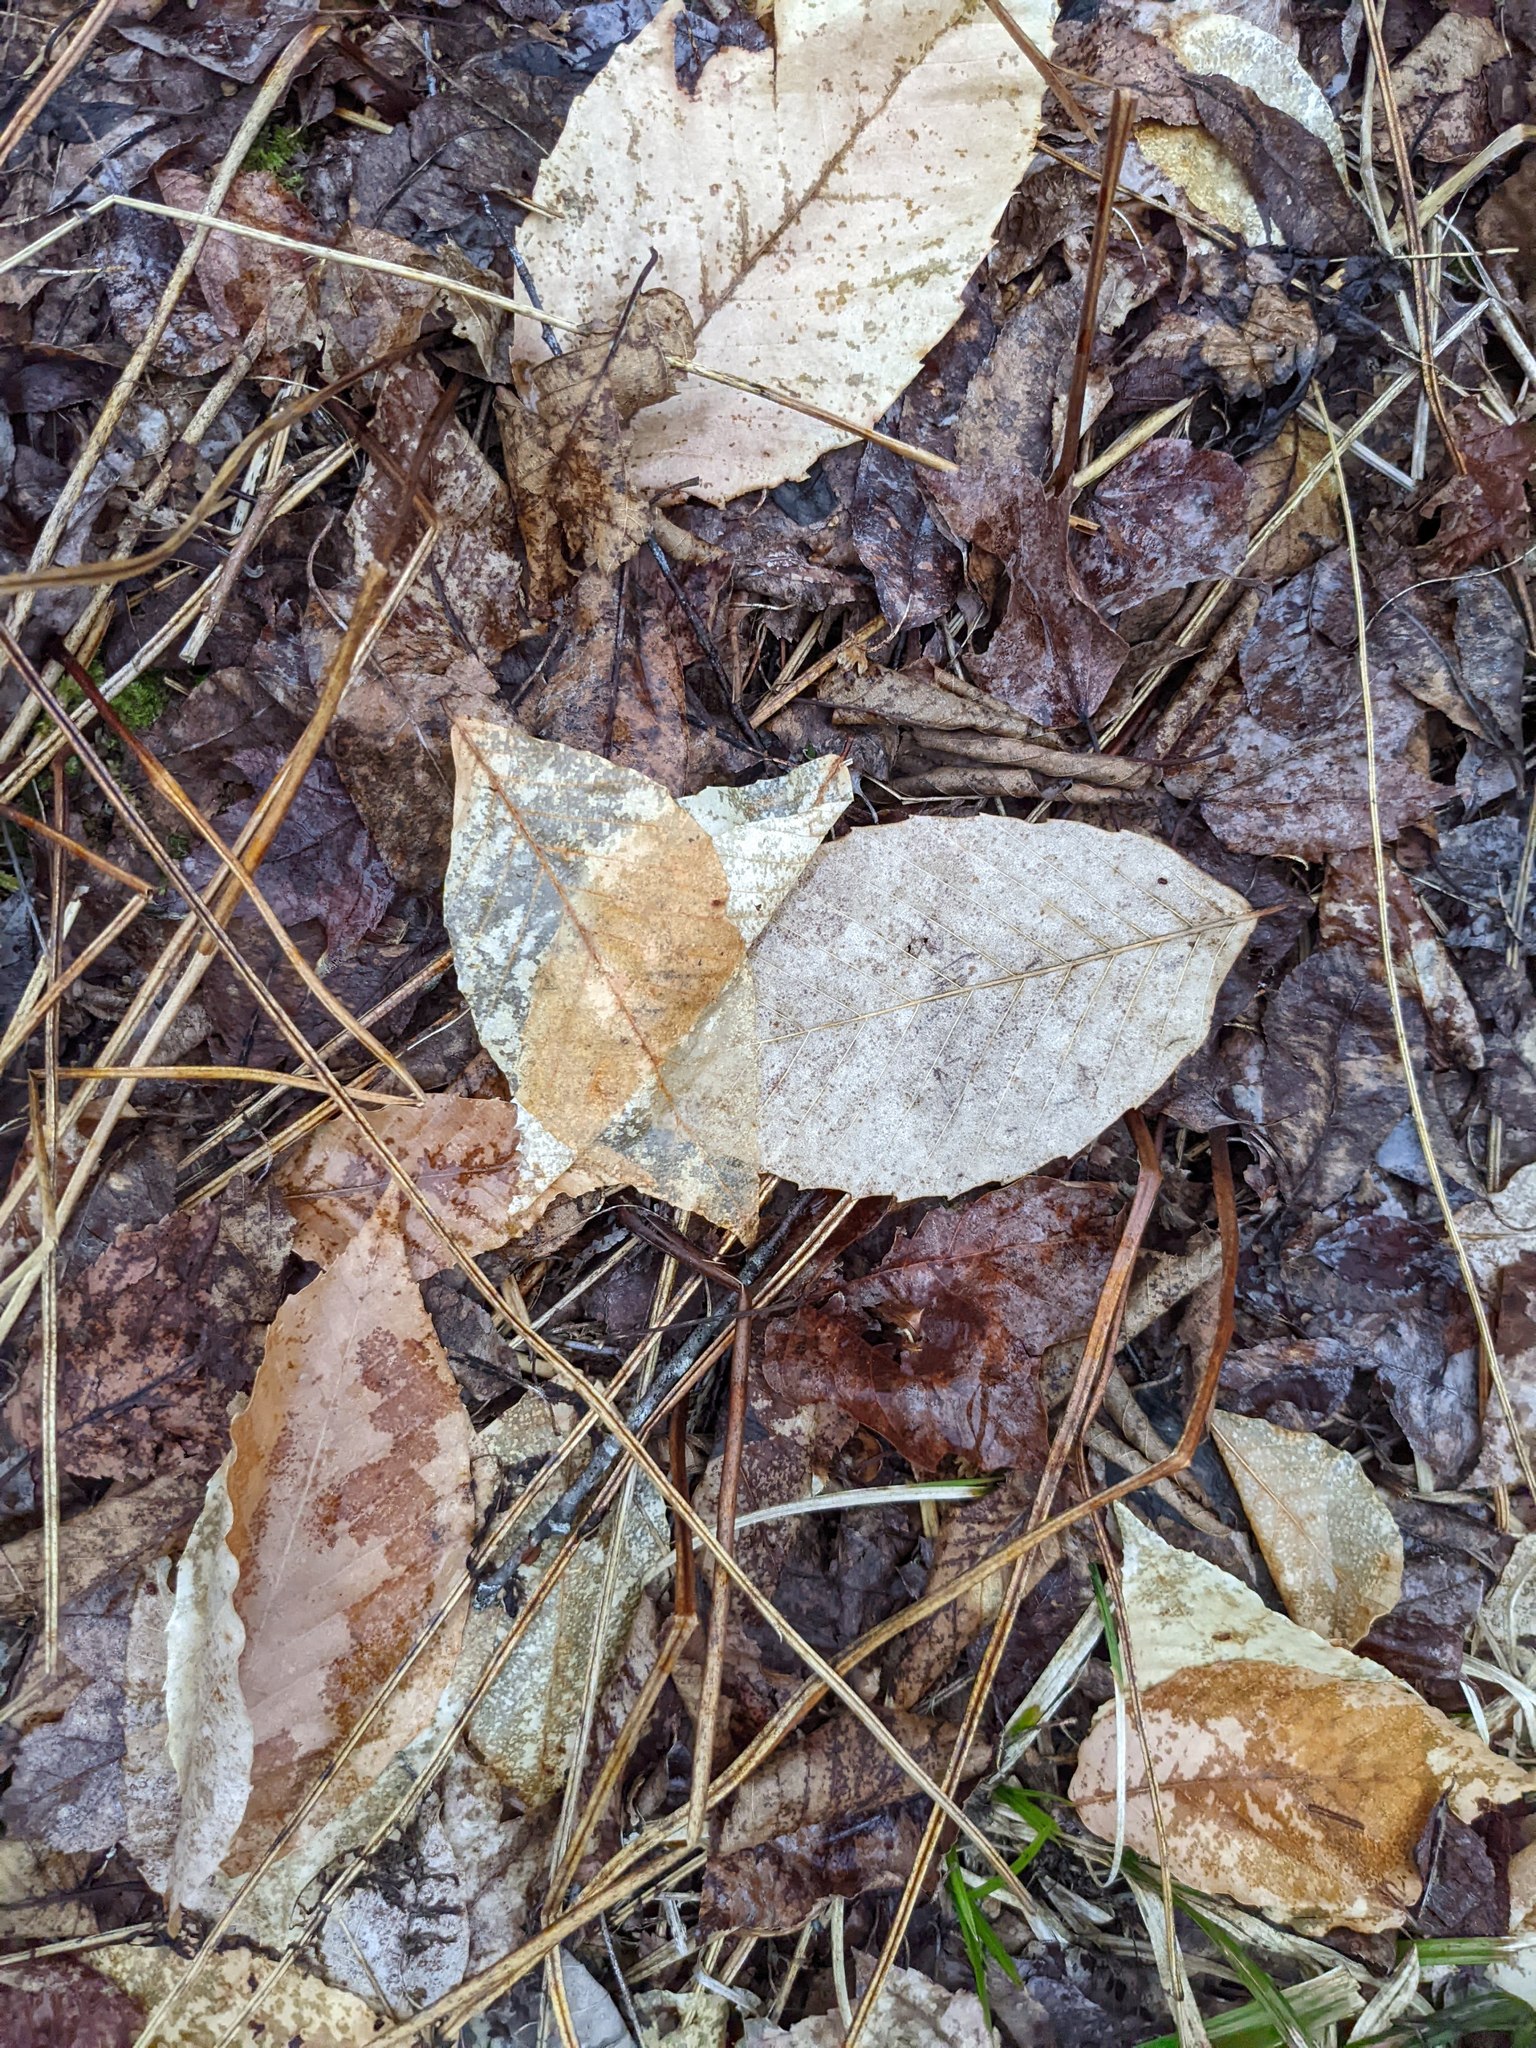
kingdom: Plantae
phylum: Tracheophyta
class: Magnoliopsida
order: Fagales
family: Fagaceae
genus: Fagus
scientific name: Fagus grandifolia
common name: American beech
